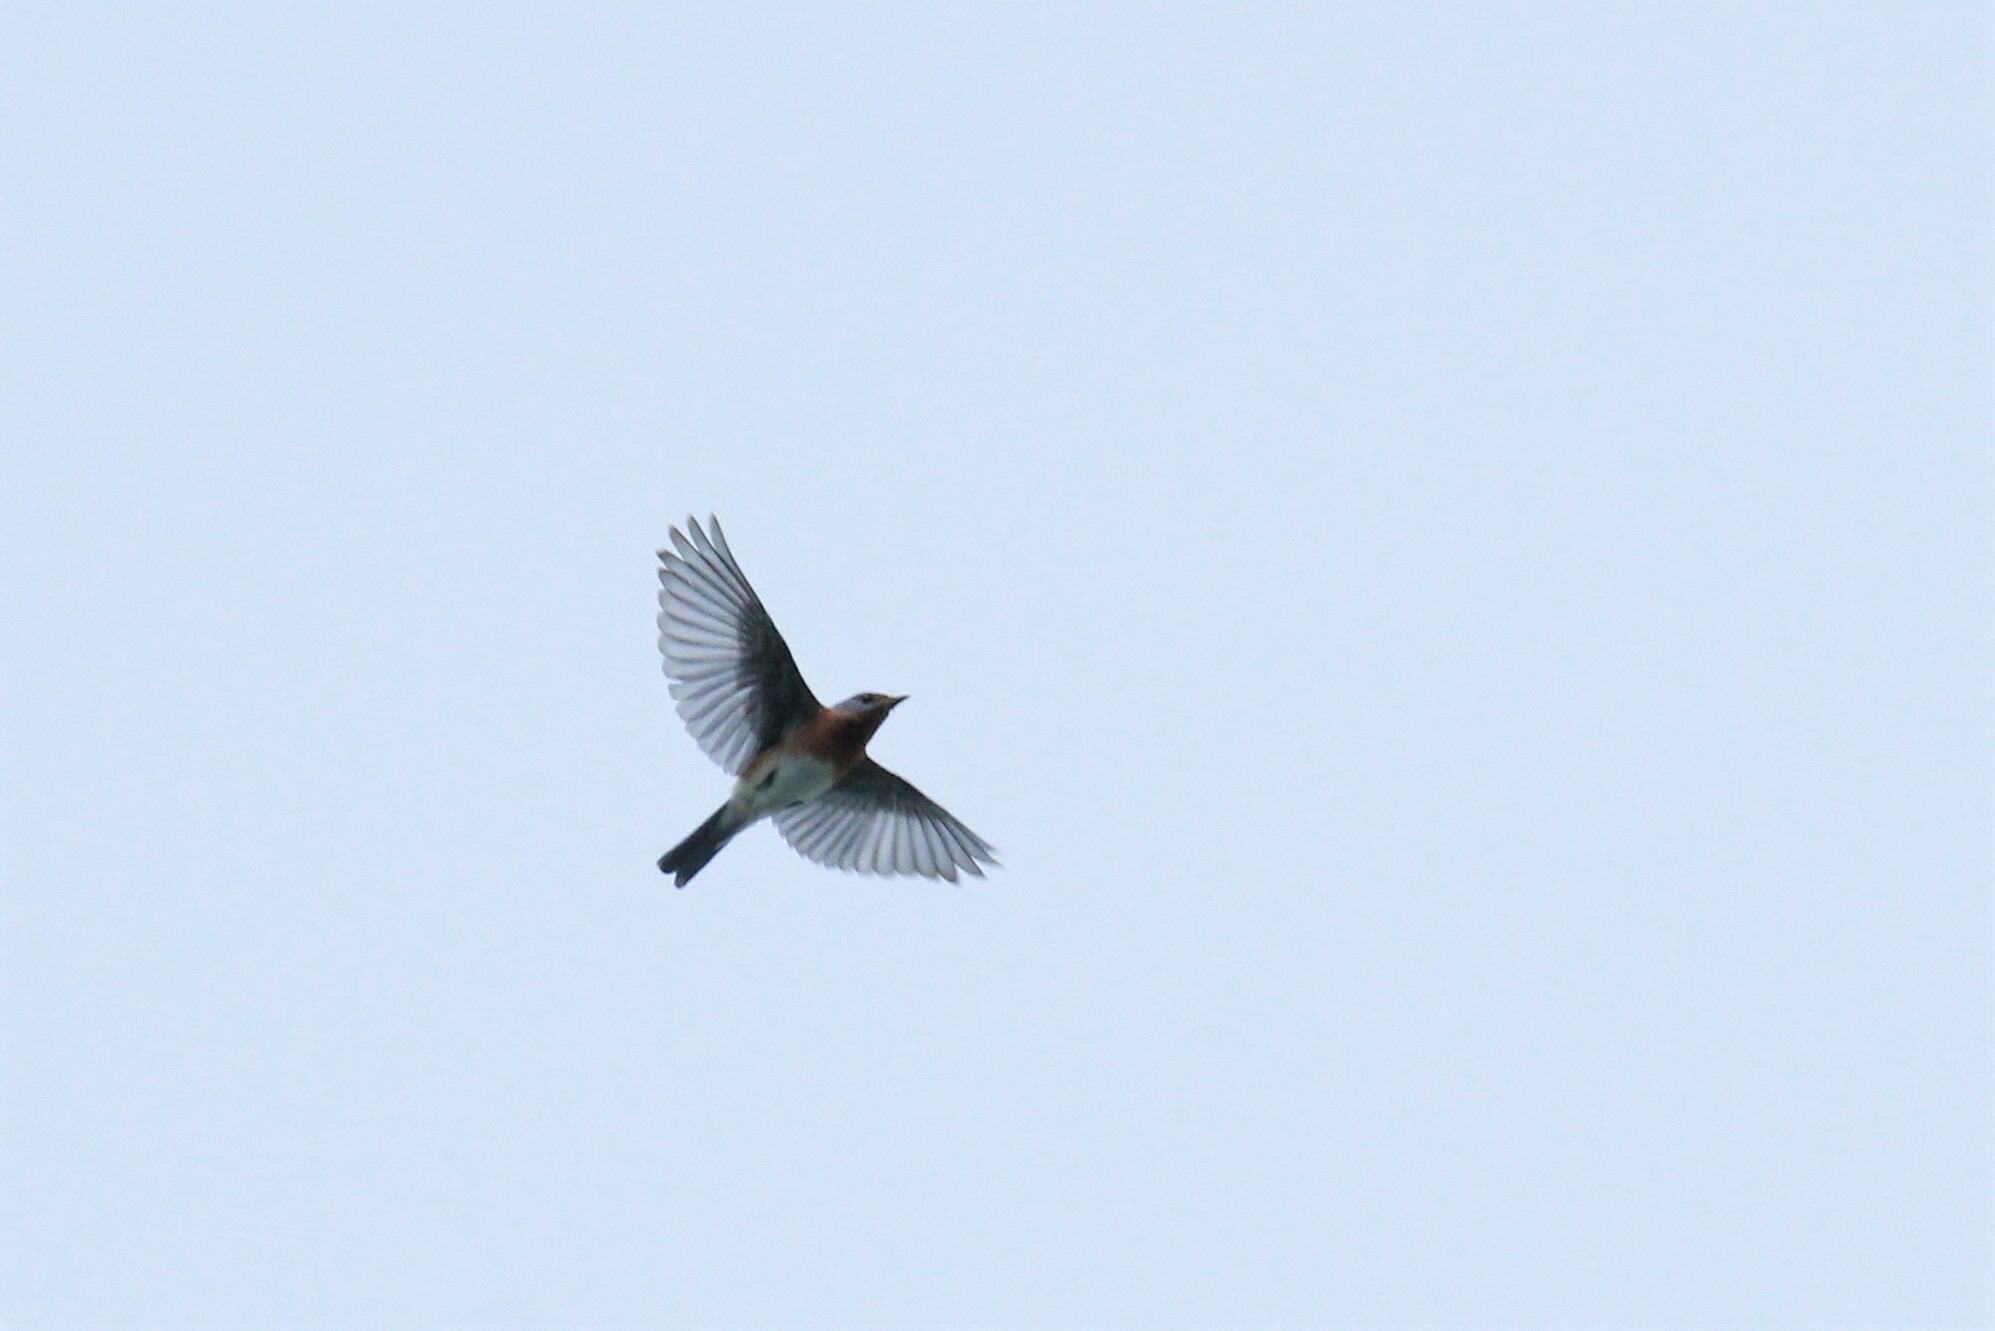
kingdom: Animalia
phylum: Chordata
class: Aves
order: Passeriformes
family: Turdidae
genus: Sialia
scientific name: Sialia sialis
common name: Eastern bluebird
